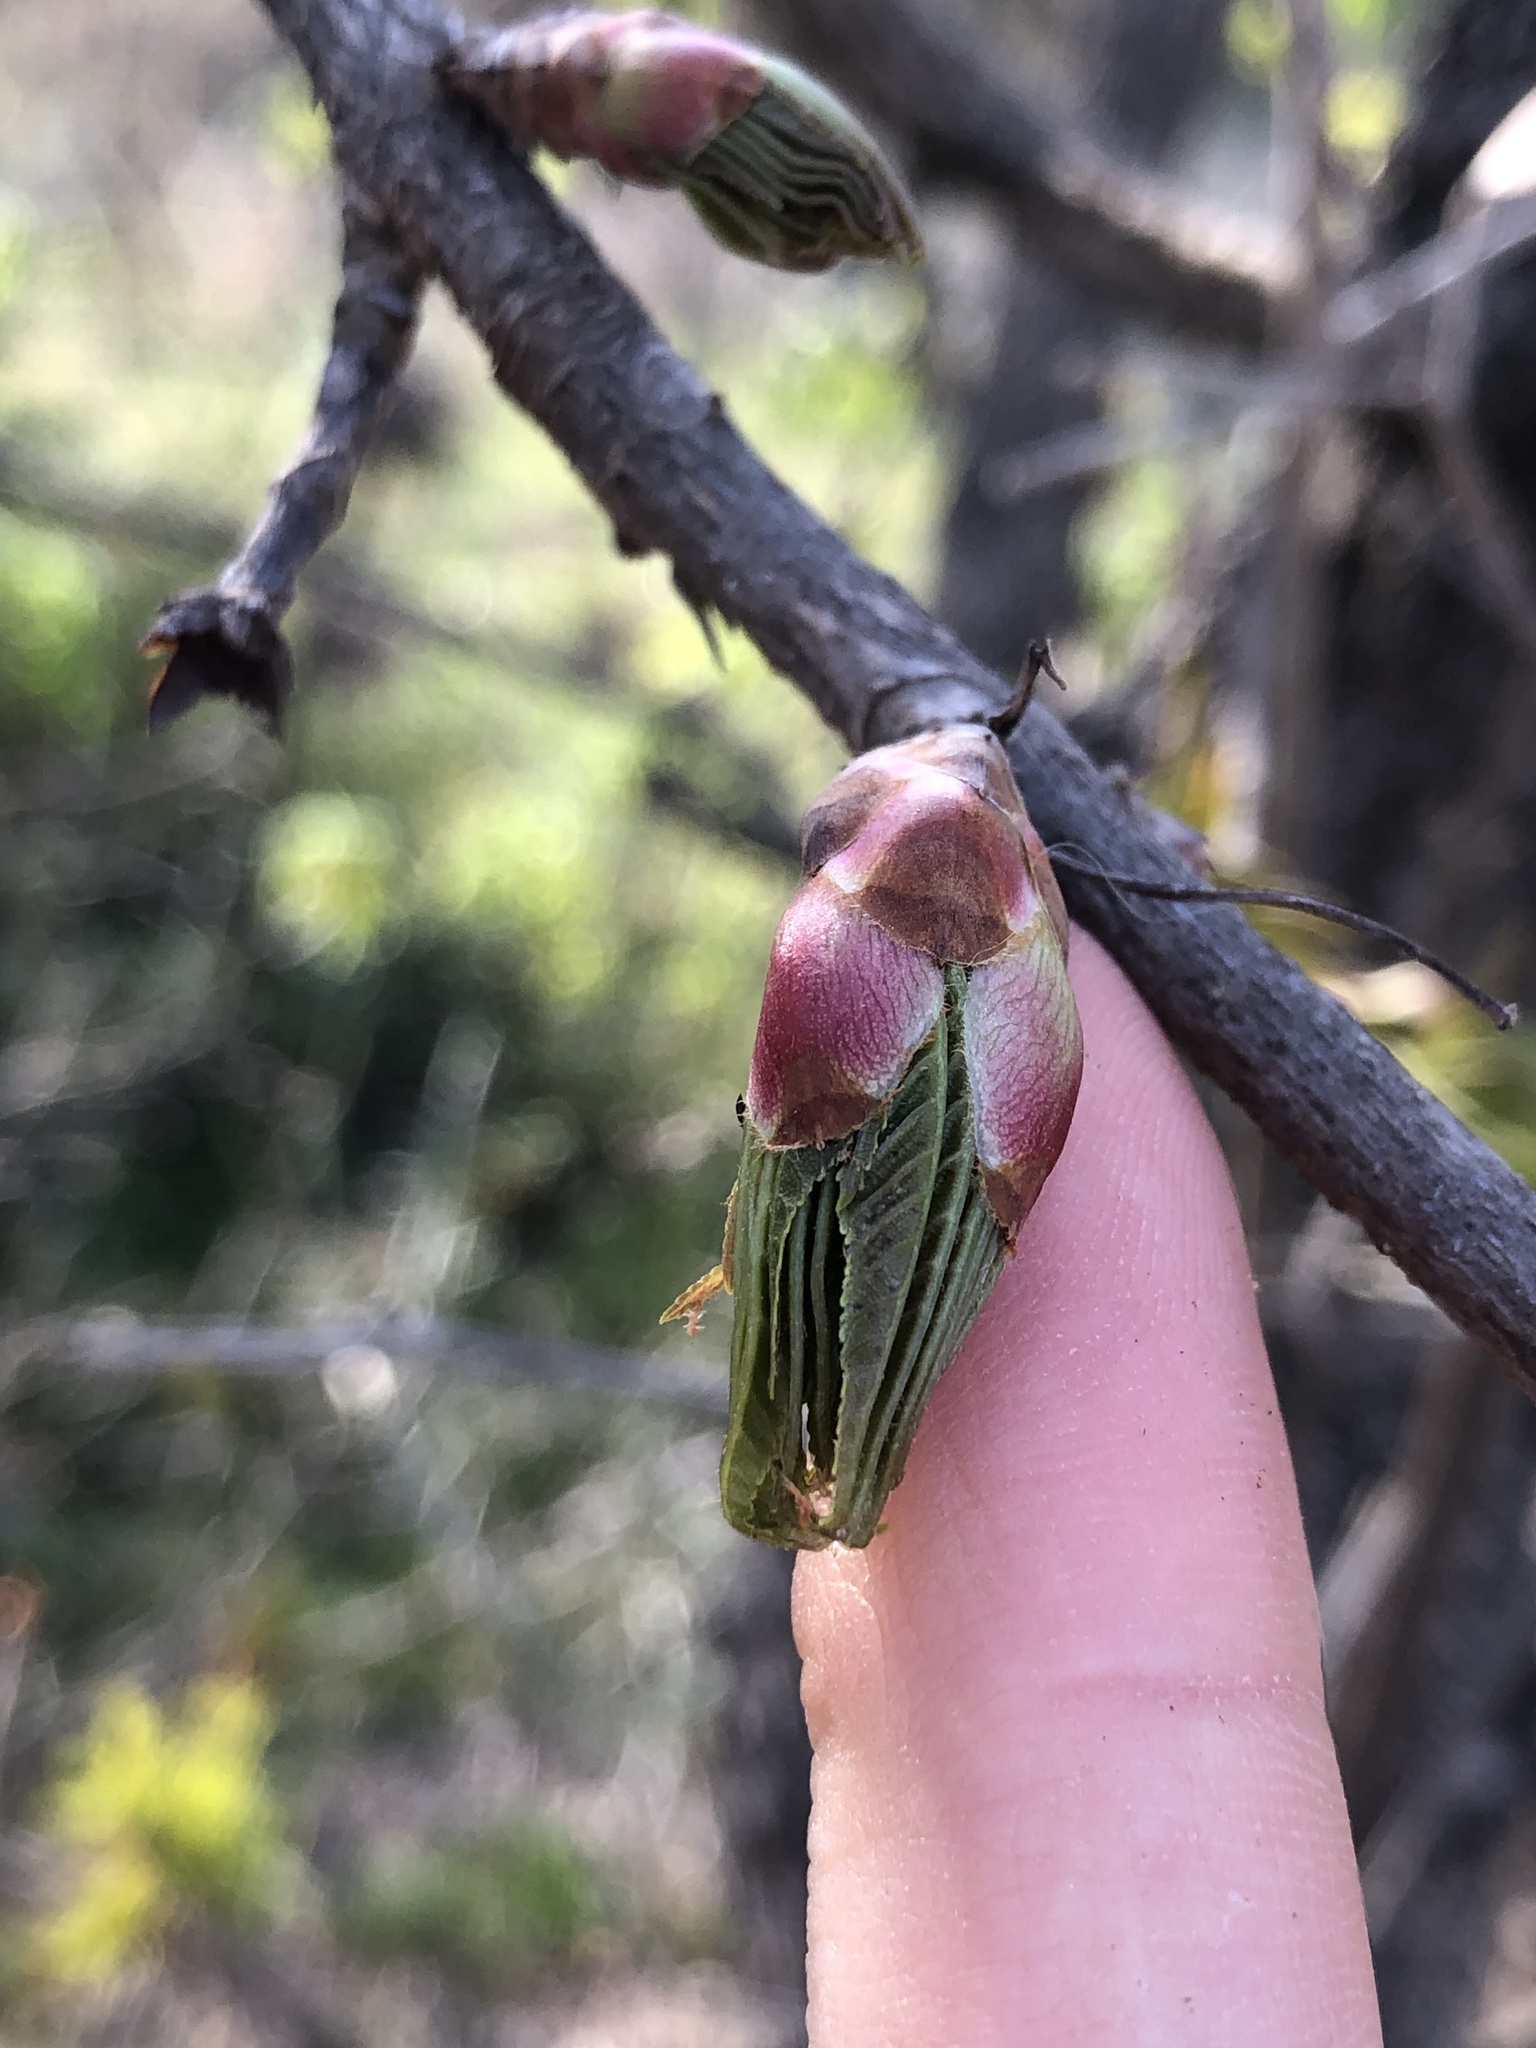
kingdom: Plantae
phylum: Tracheophyta
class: Magnoliopsida
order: Sapindales
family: Sapindaceae
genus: Aesculus
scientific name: Aesculus glabra
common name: Ohio buckeye
